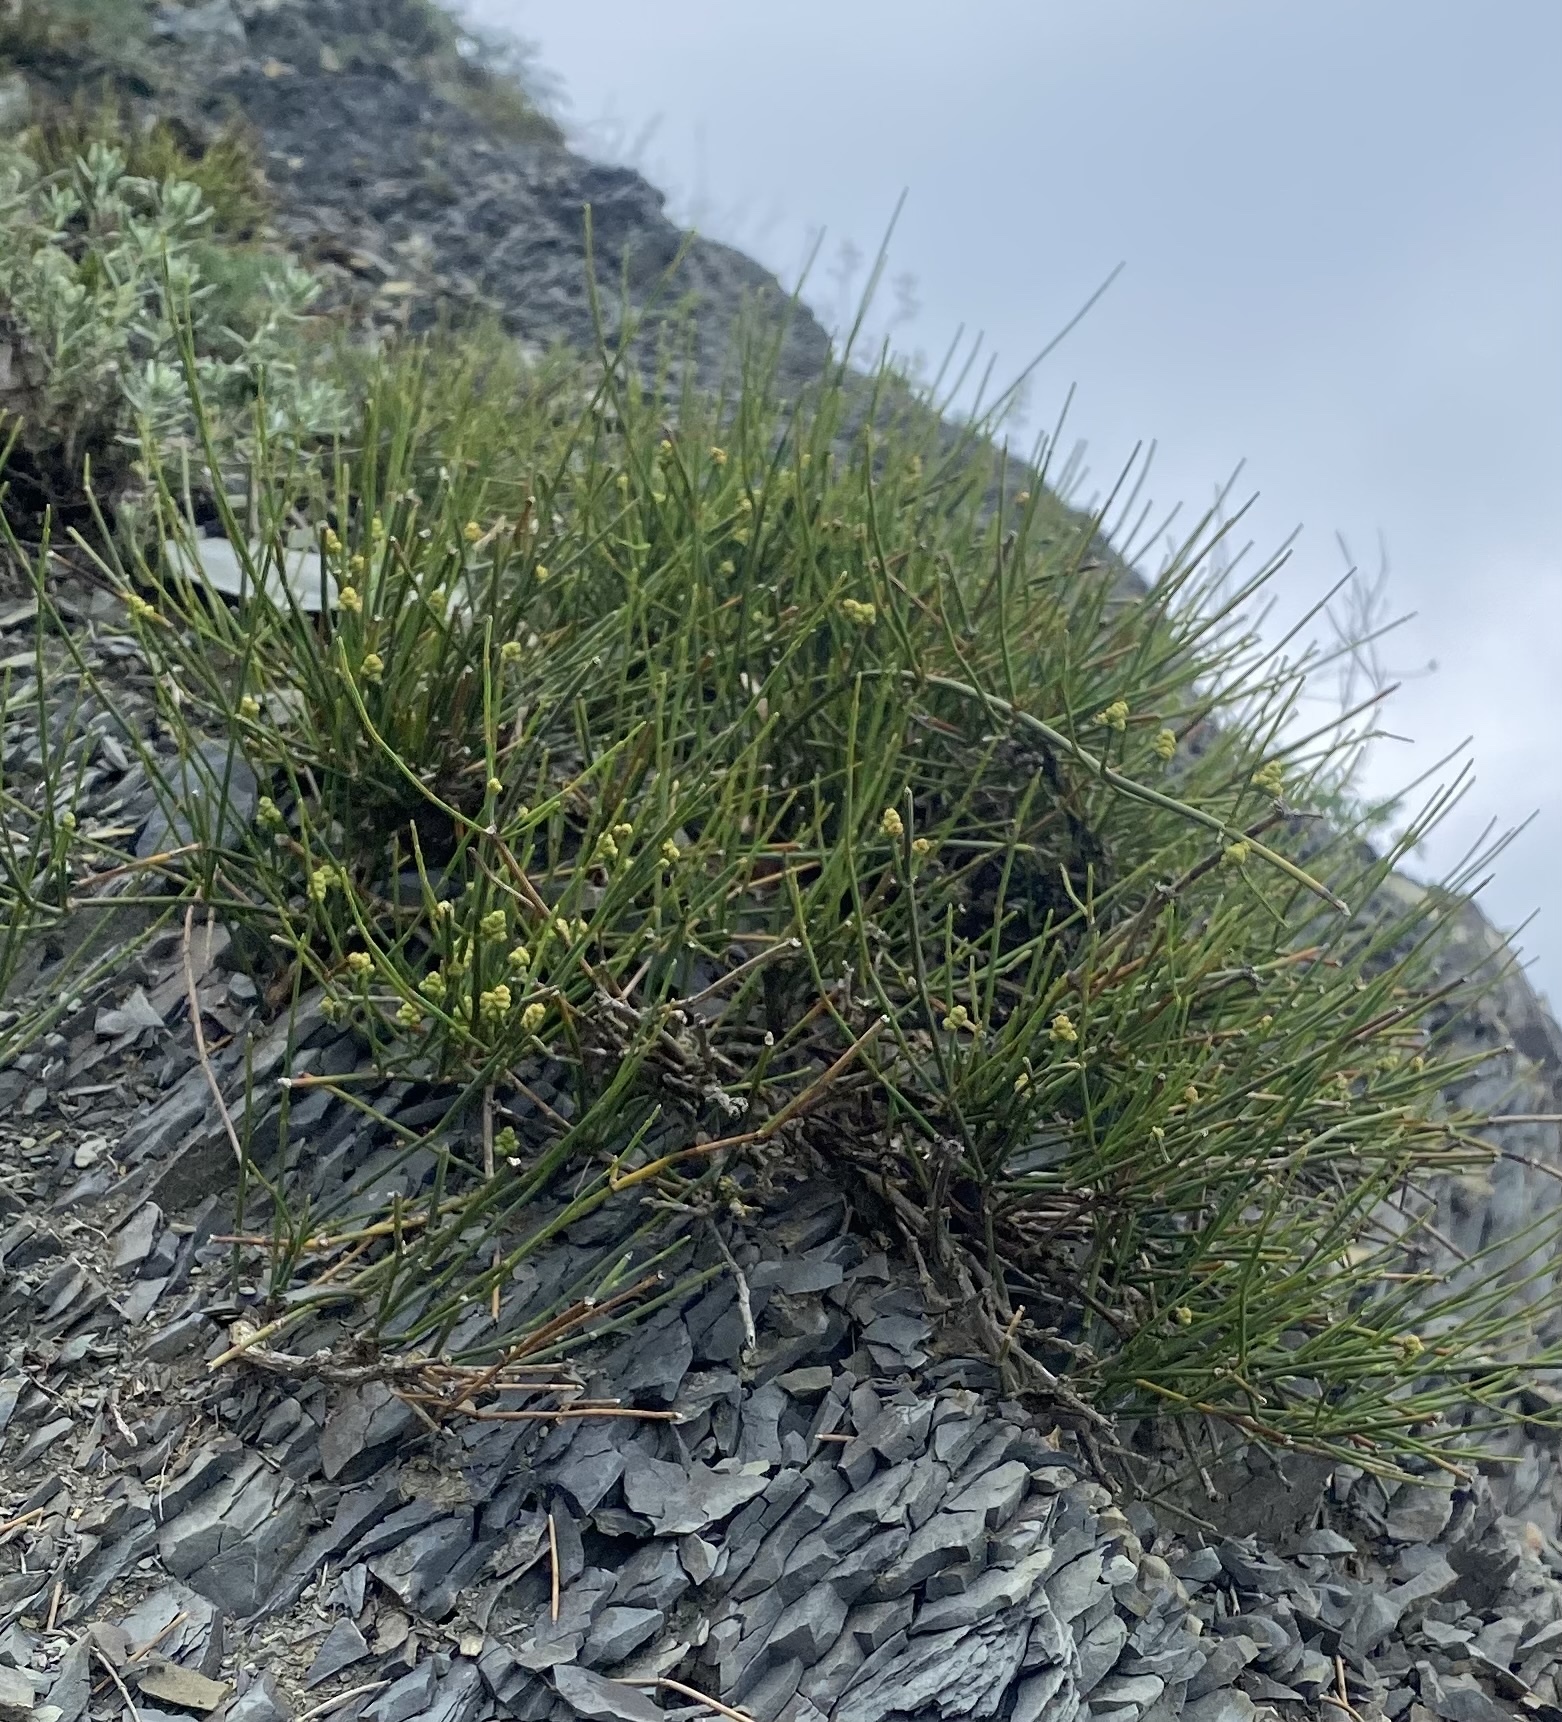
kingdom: Plantae
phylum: Tracheophyta
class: Gnetopsida
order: Ephedrales
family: Ephedraceae
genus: Ephedra
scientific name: Ephedra distachya
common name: Sea grape
